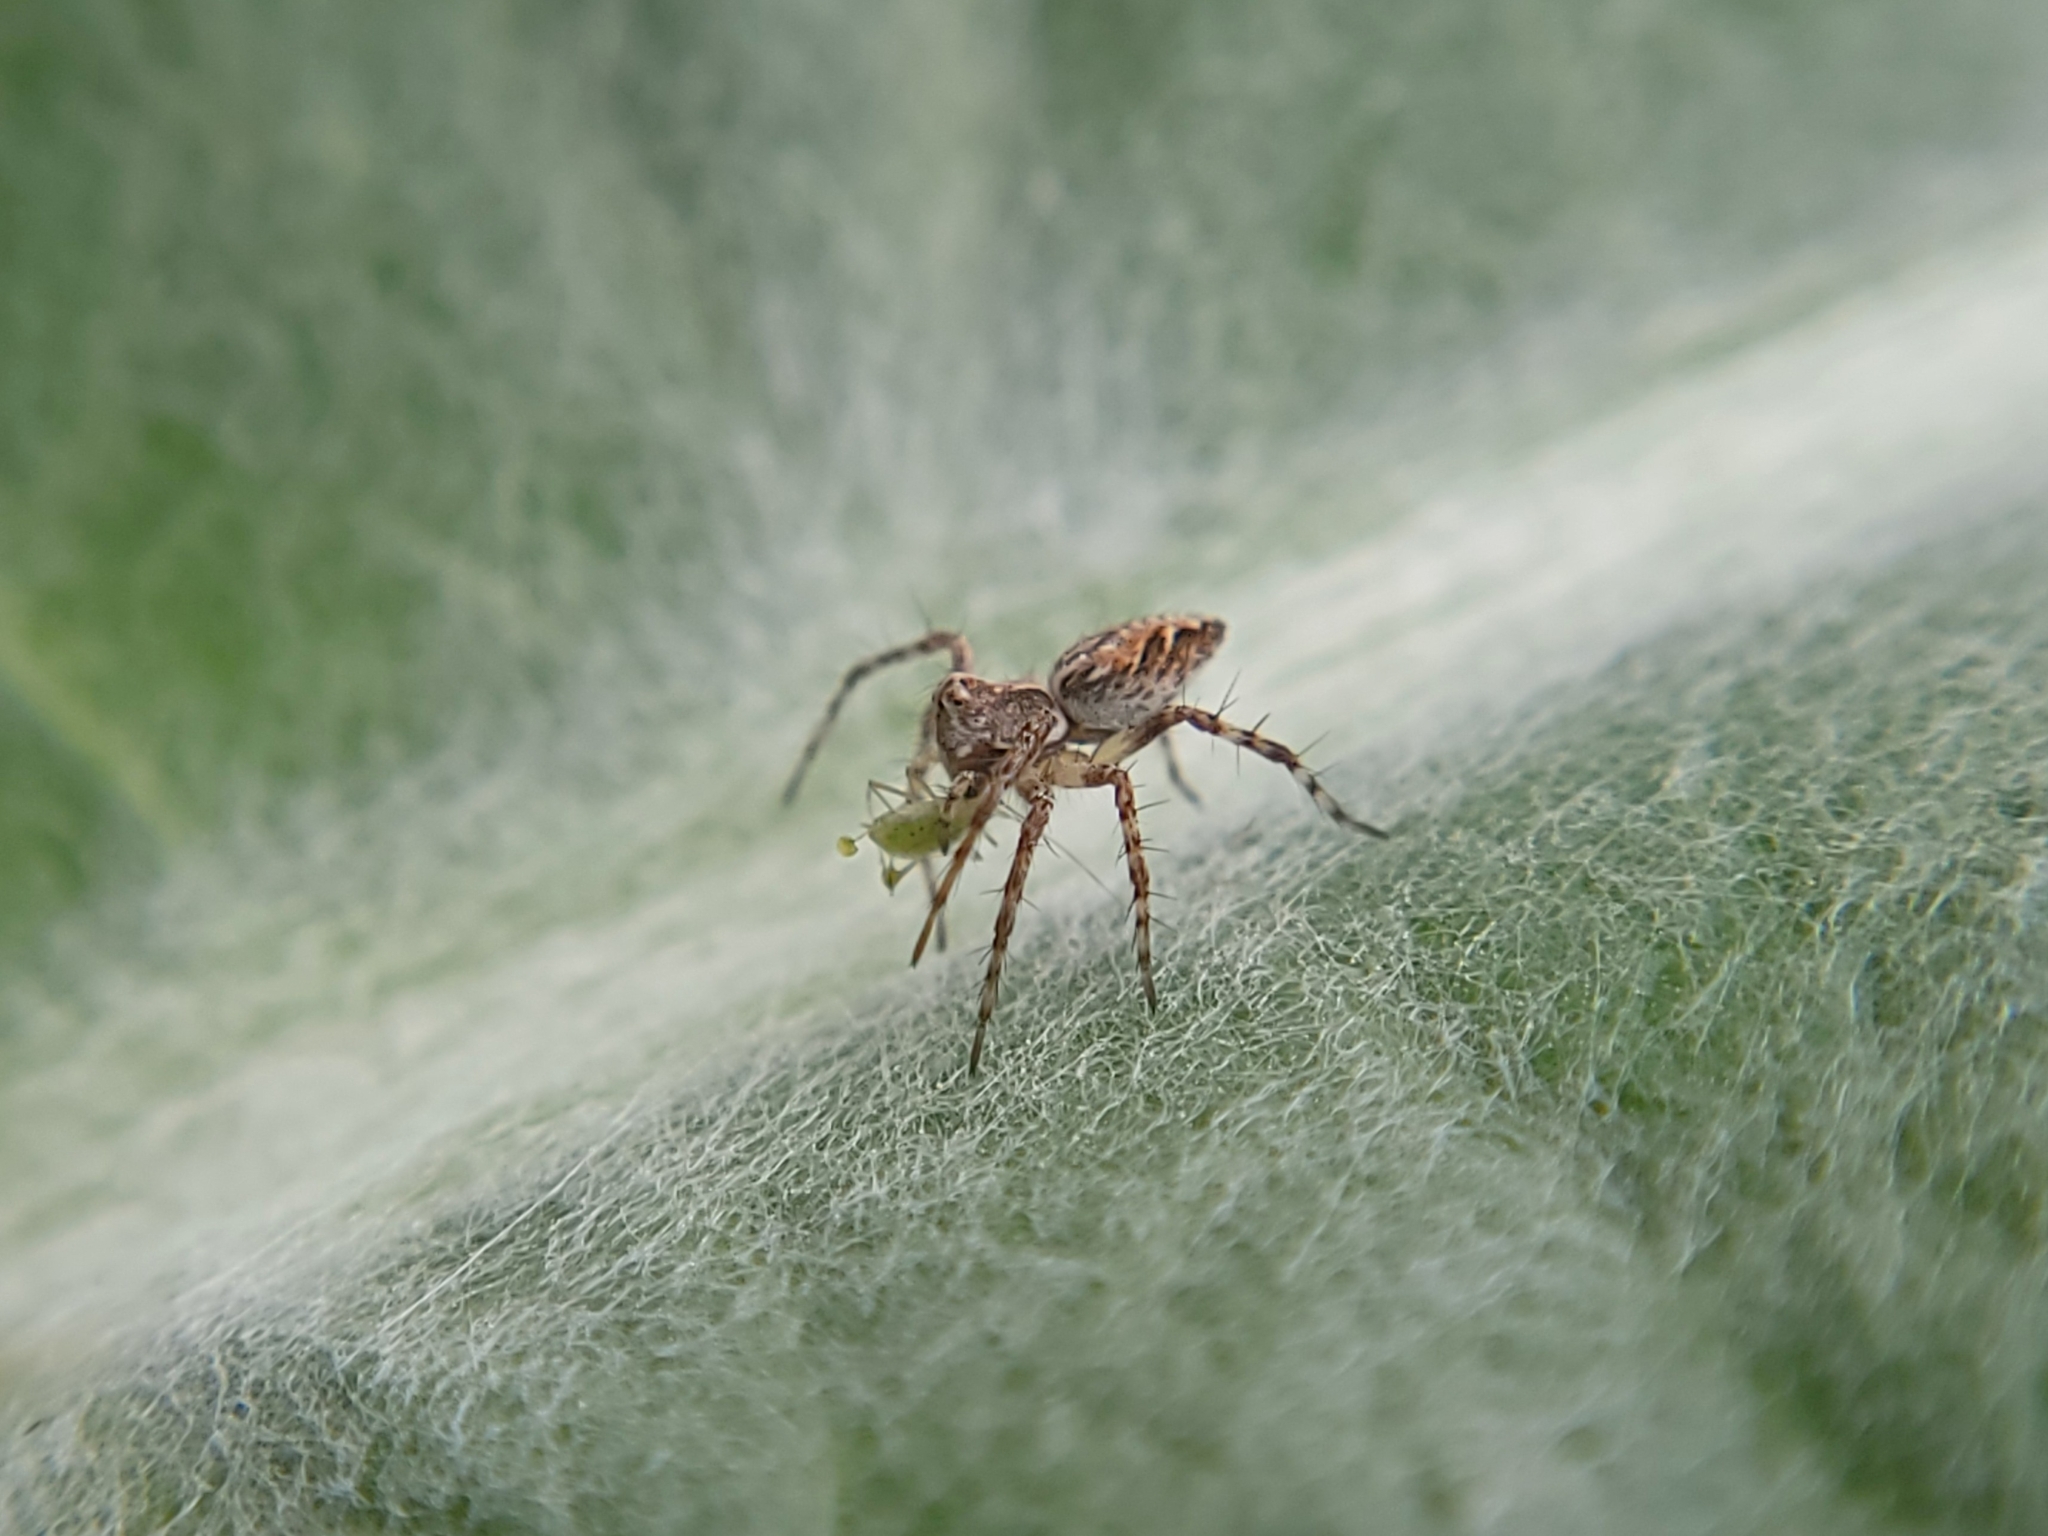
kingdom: Animalia
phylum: Arthropoda
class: Arachnida
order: Araneae
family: Oxyopidae
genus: Oxyopes
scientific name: Oxyopes scalaris
